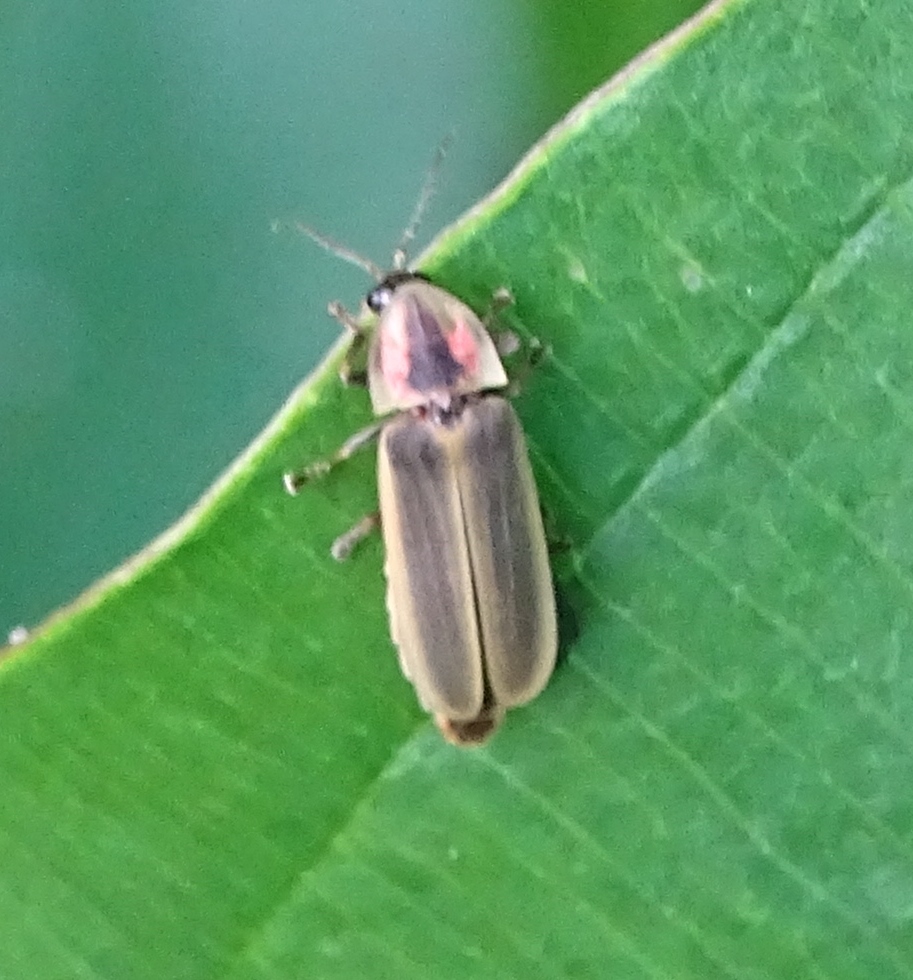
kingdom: Animalia
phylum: Arthropoda
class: Insecta
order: Coleoptera
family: Lampyridae
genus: Pyractomena
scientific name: Pyractomena
